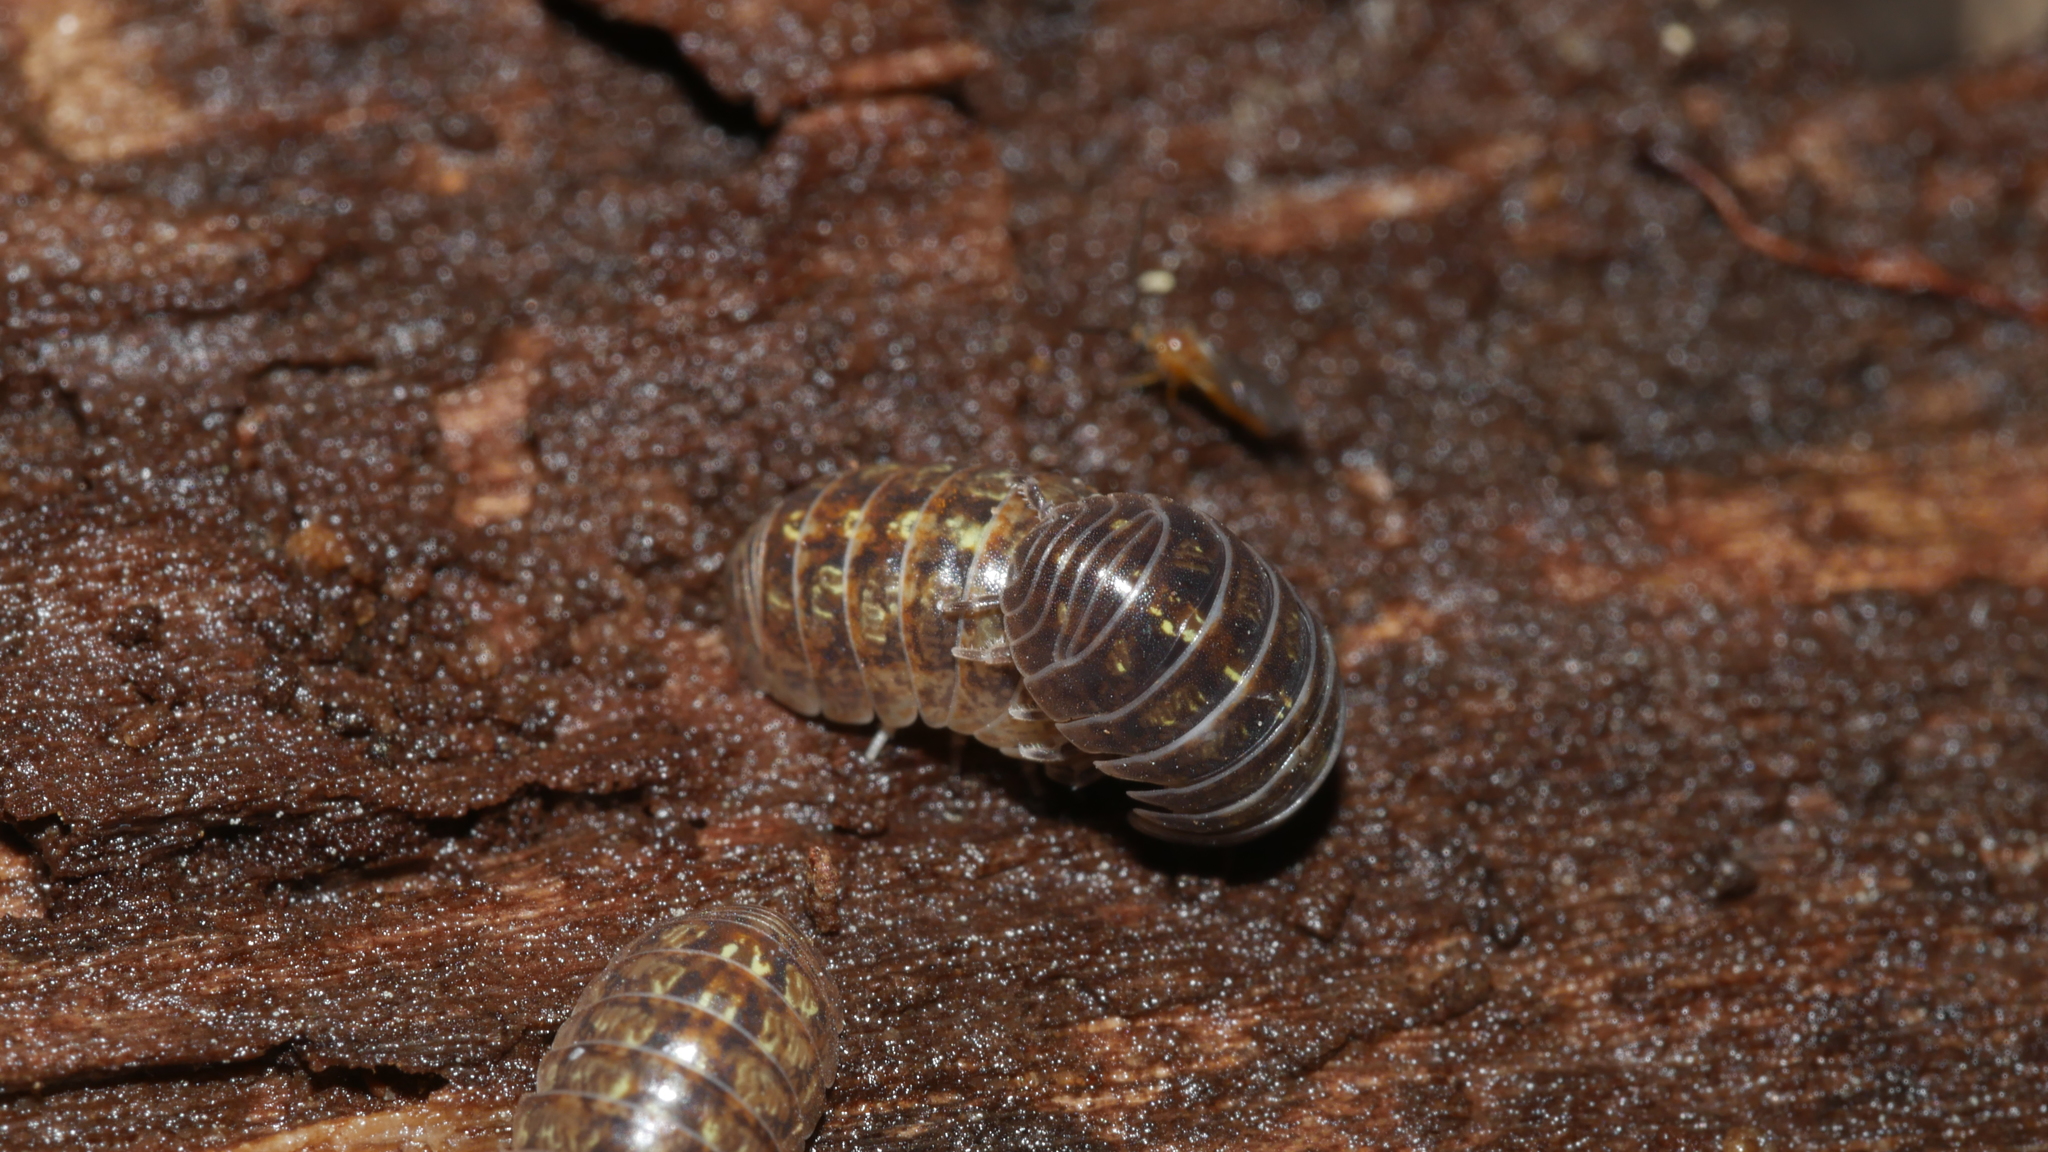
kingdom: Animalia
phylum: Arthropoda
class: Malacostraca
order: Isopoda
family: Armadillidiidae
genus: Armadillidium
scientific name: Armadillidium vulgare
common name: Common pill woodlouse
